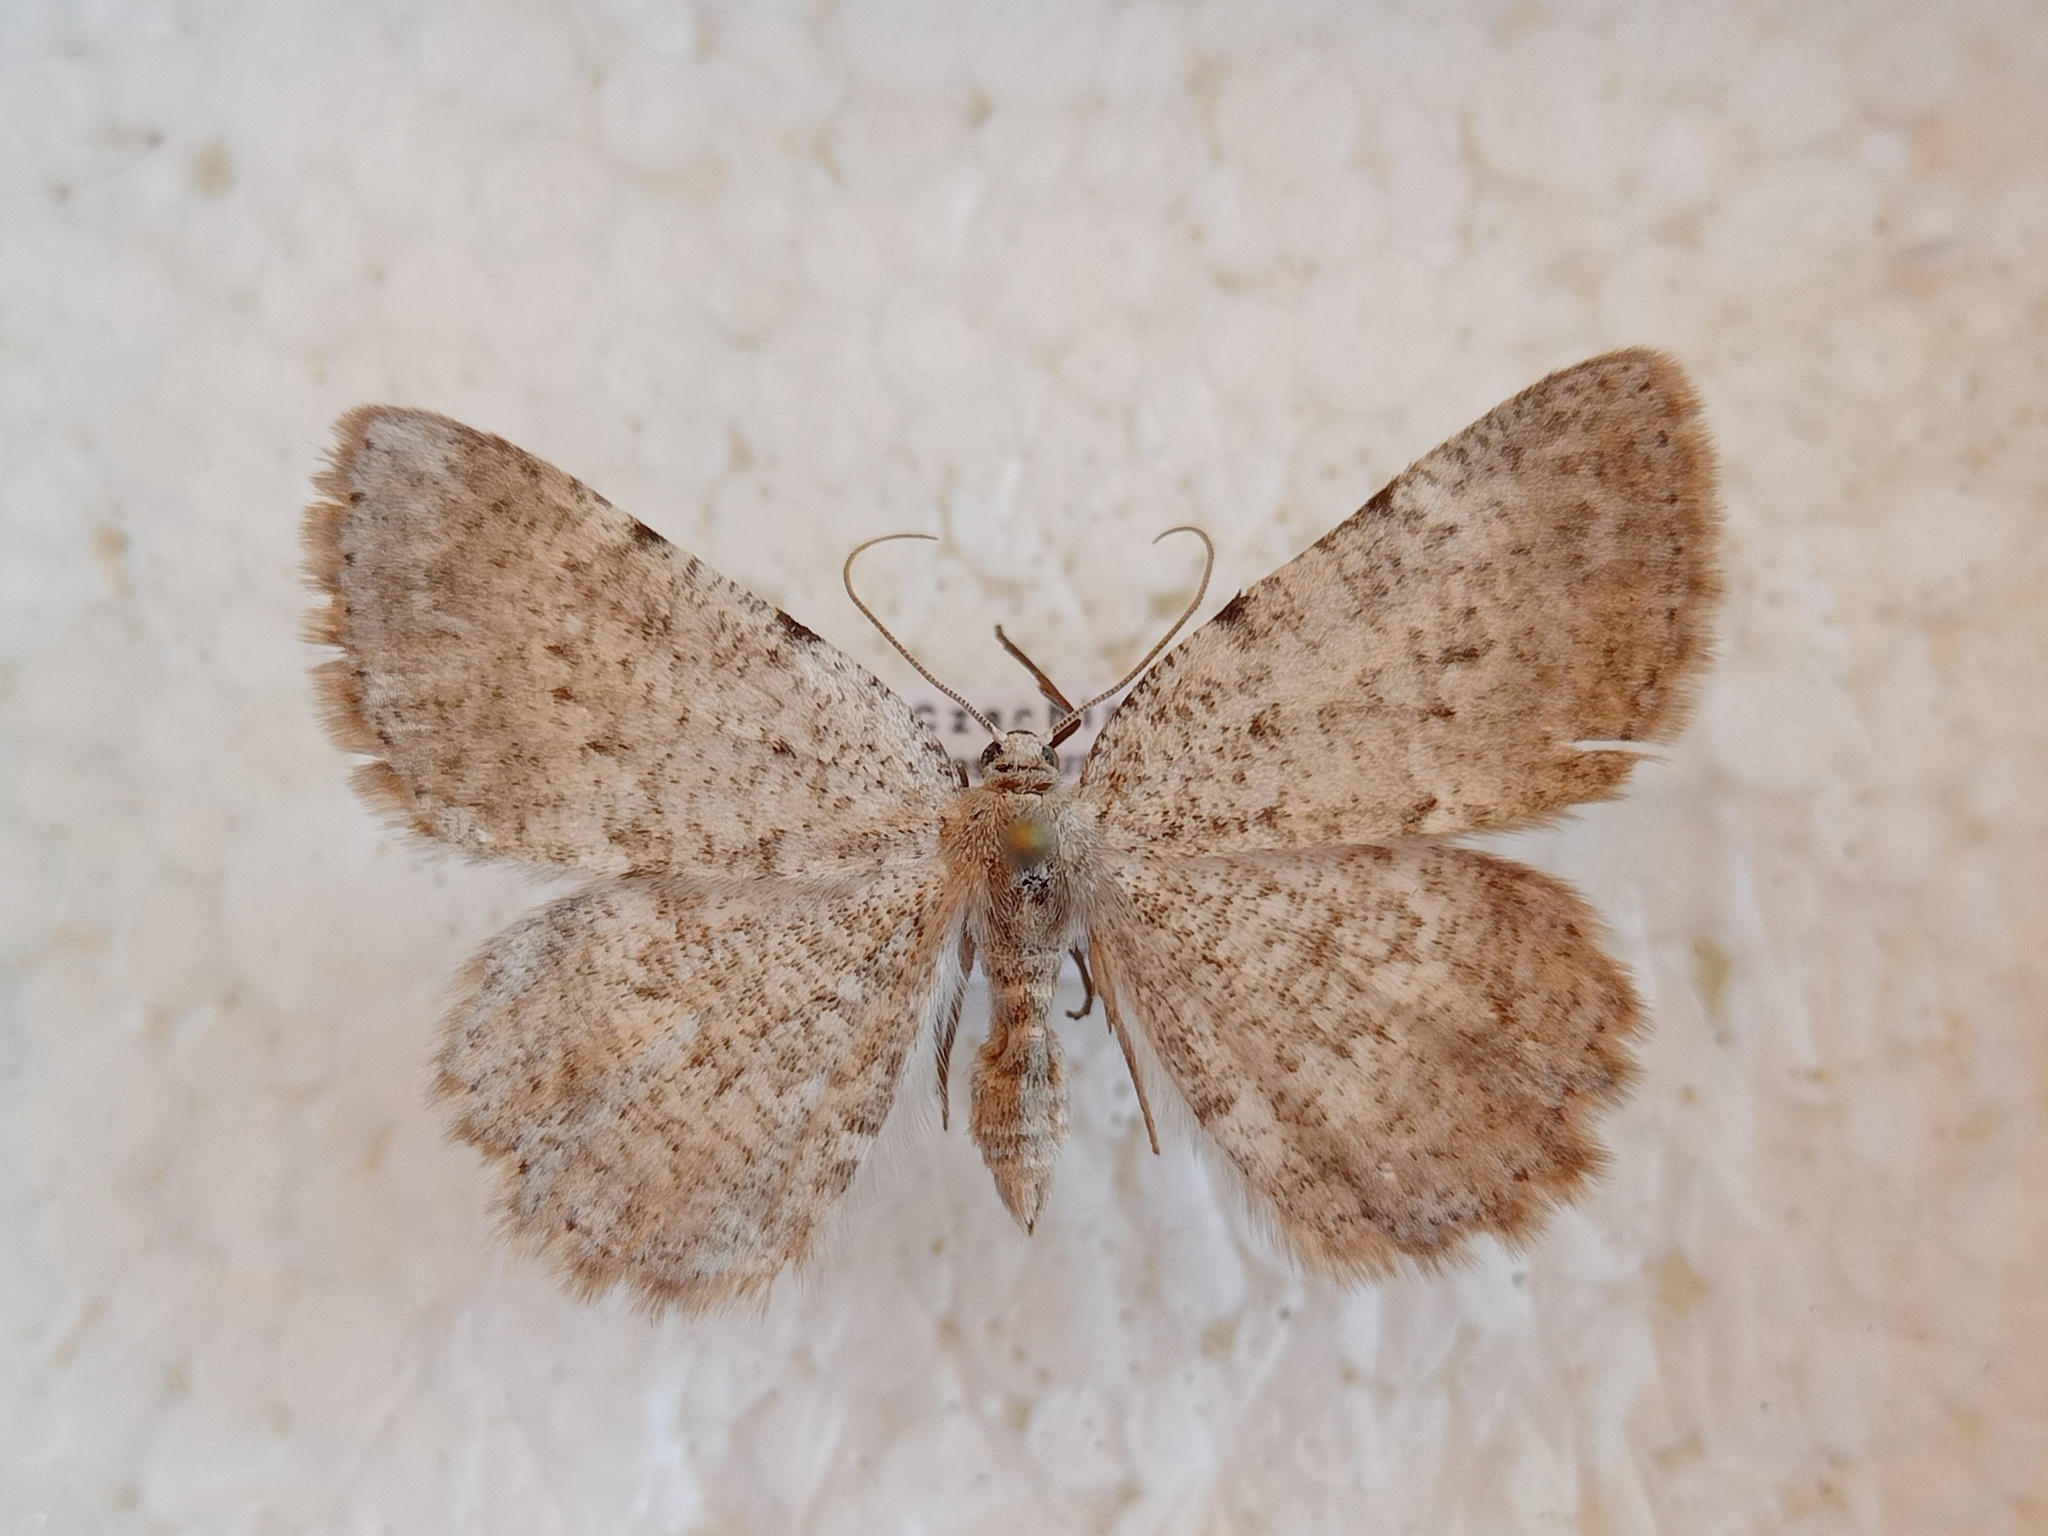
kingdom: Animalia
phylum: Arthropoda
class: Insecta
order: Lepidoptera
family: Geometridae
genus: Charissa
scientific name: Charissa pullata
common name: Limestone annulet
